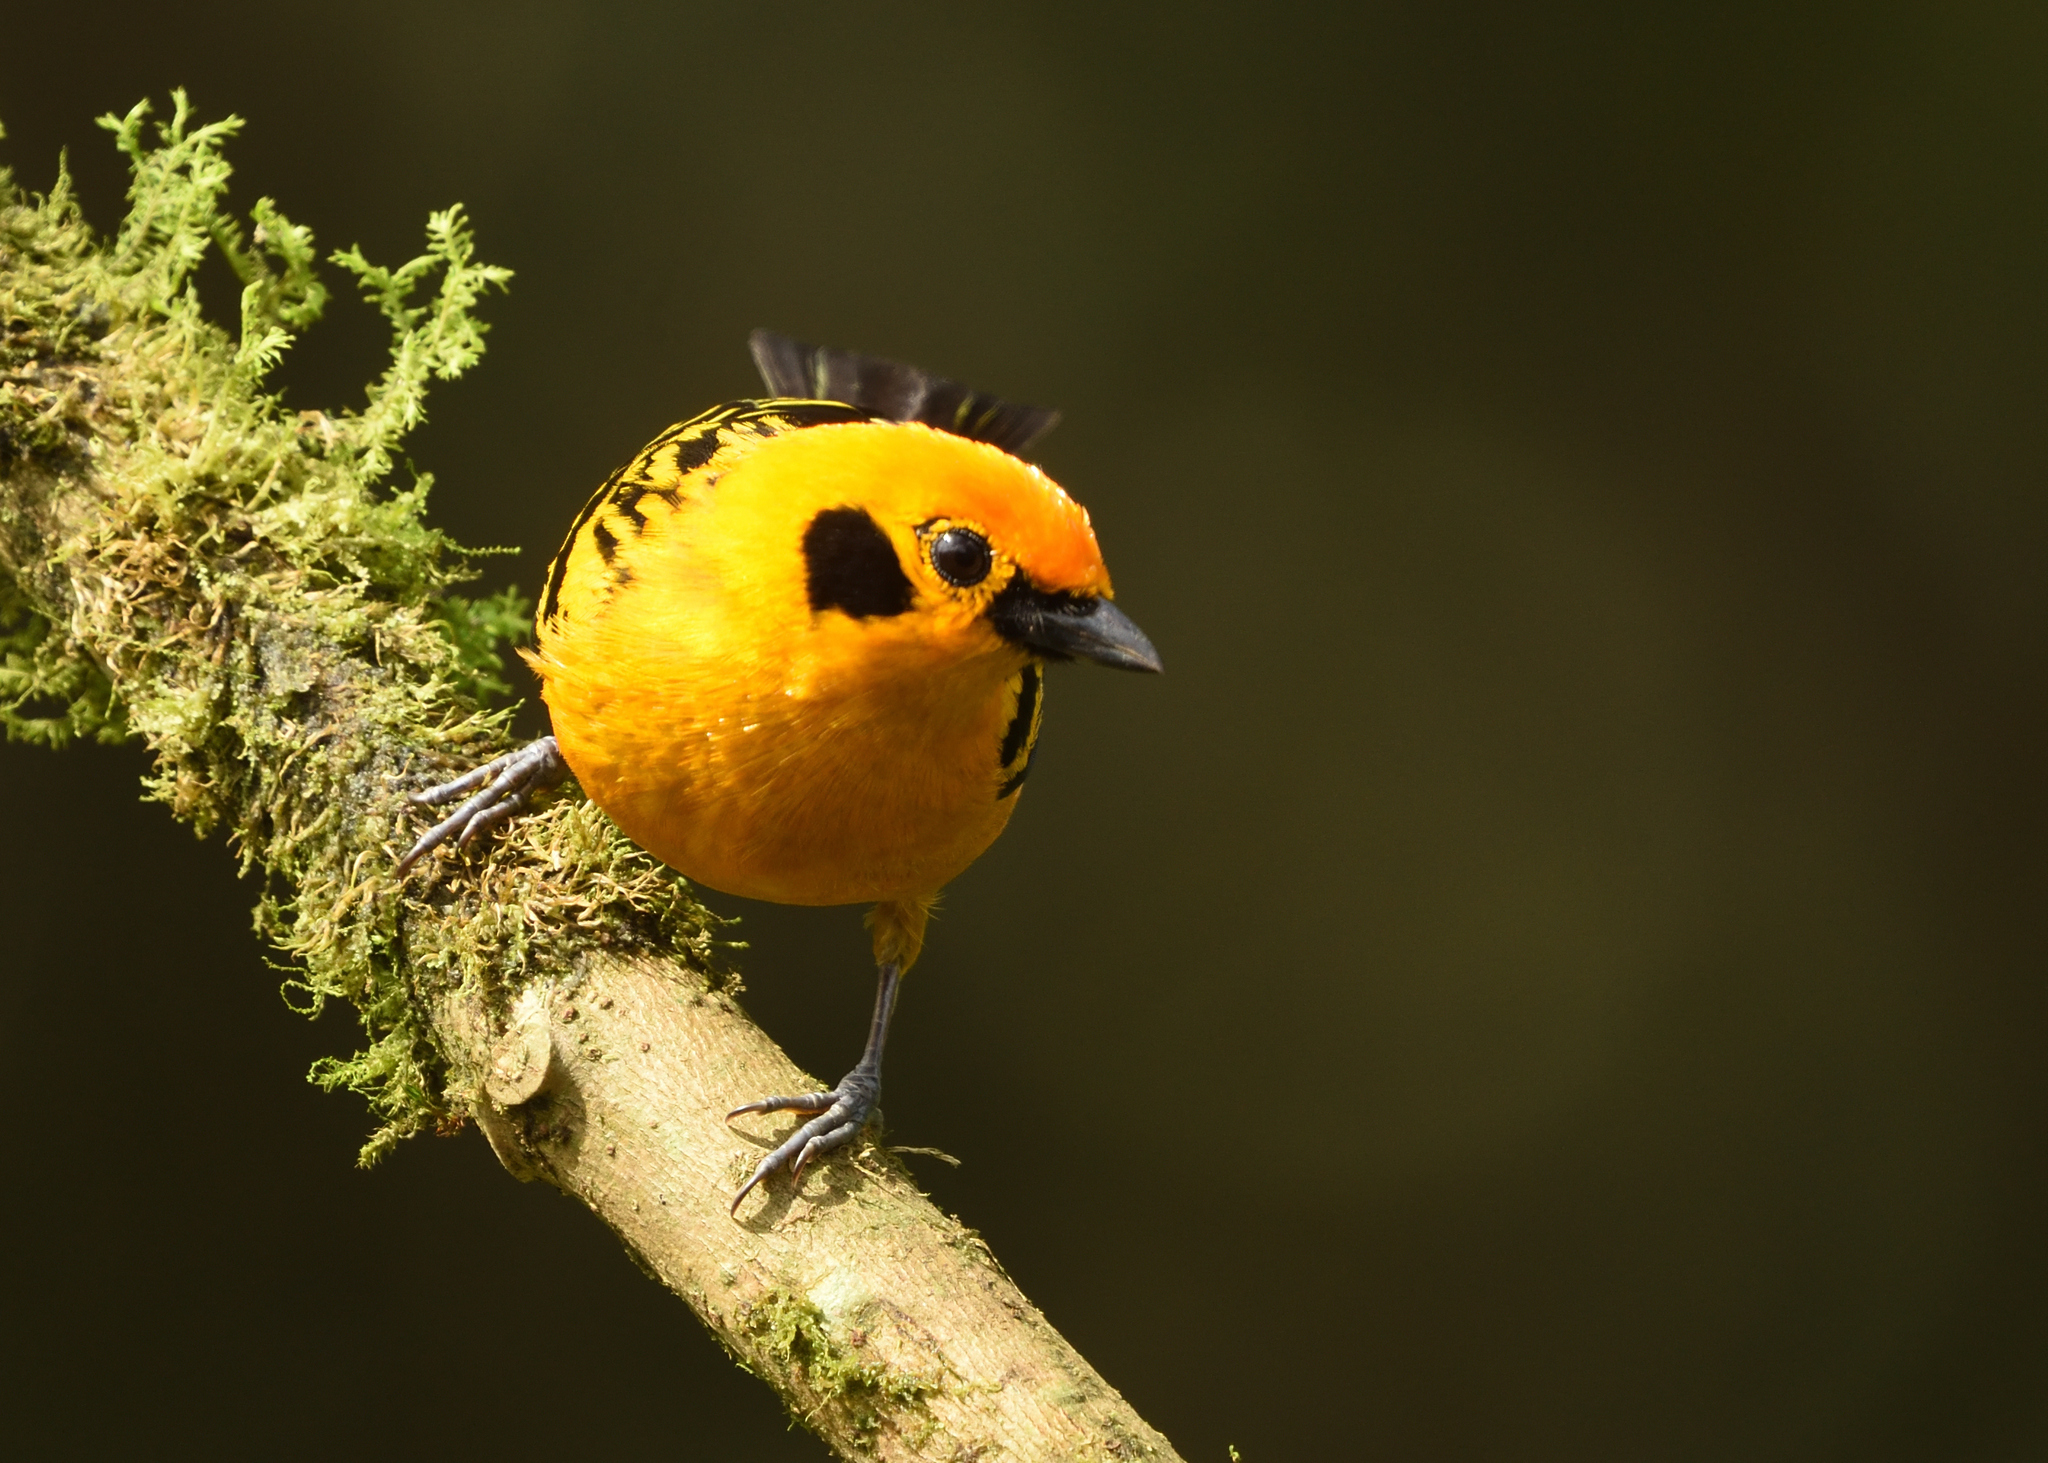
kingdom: Animalia
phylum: Chordata
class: Aves
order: Passeriformes
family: Thraupidae
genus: Tangara
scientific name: Tangara arthus
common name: Golden tanager
